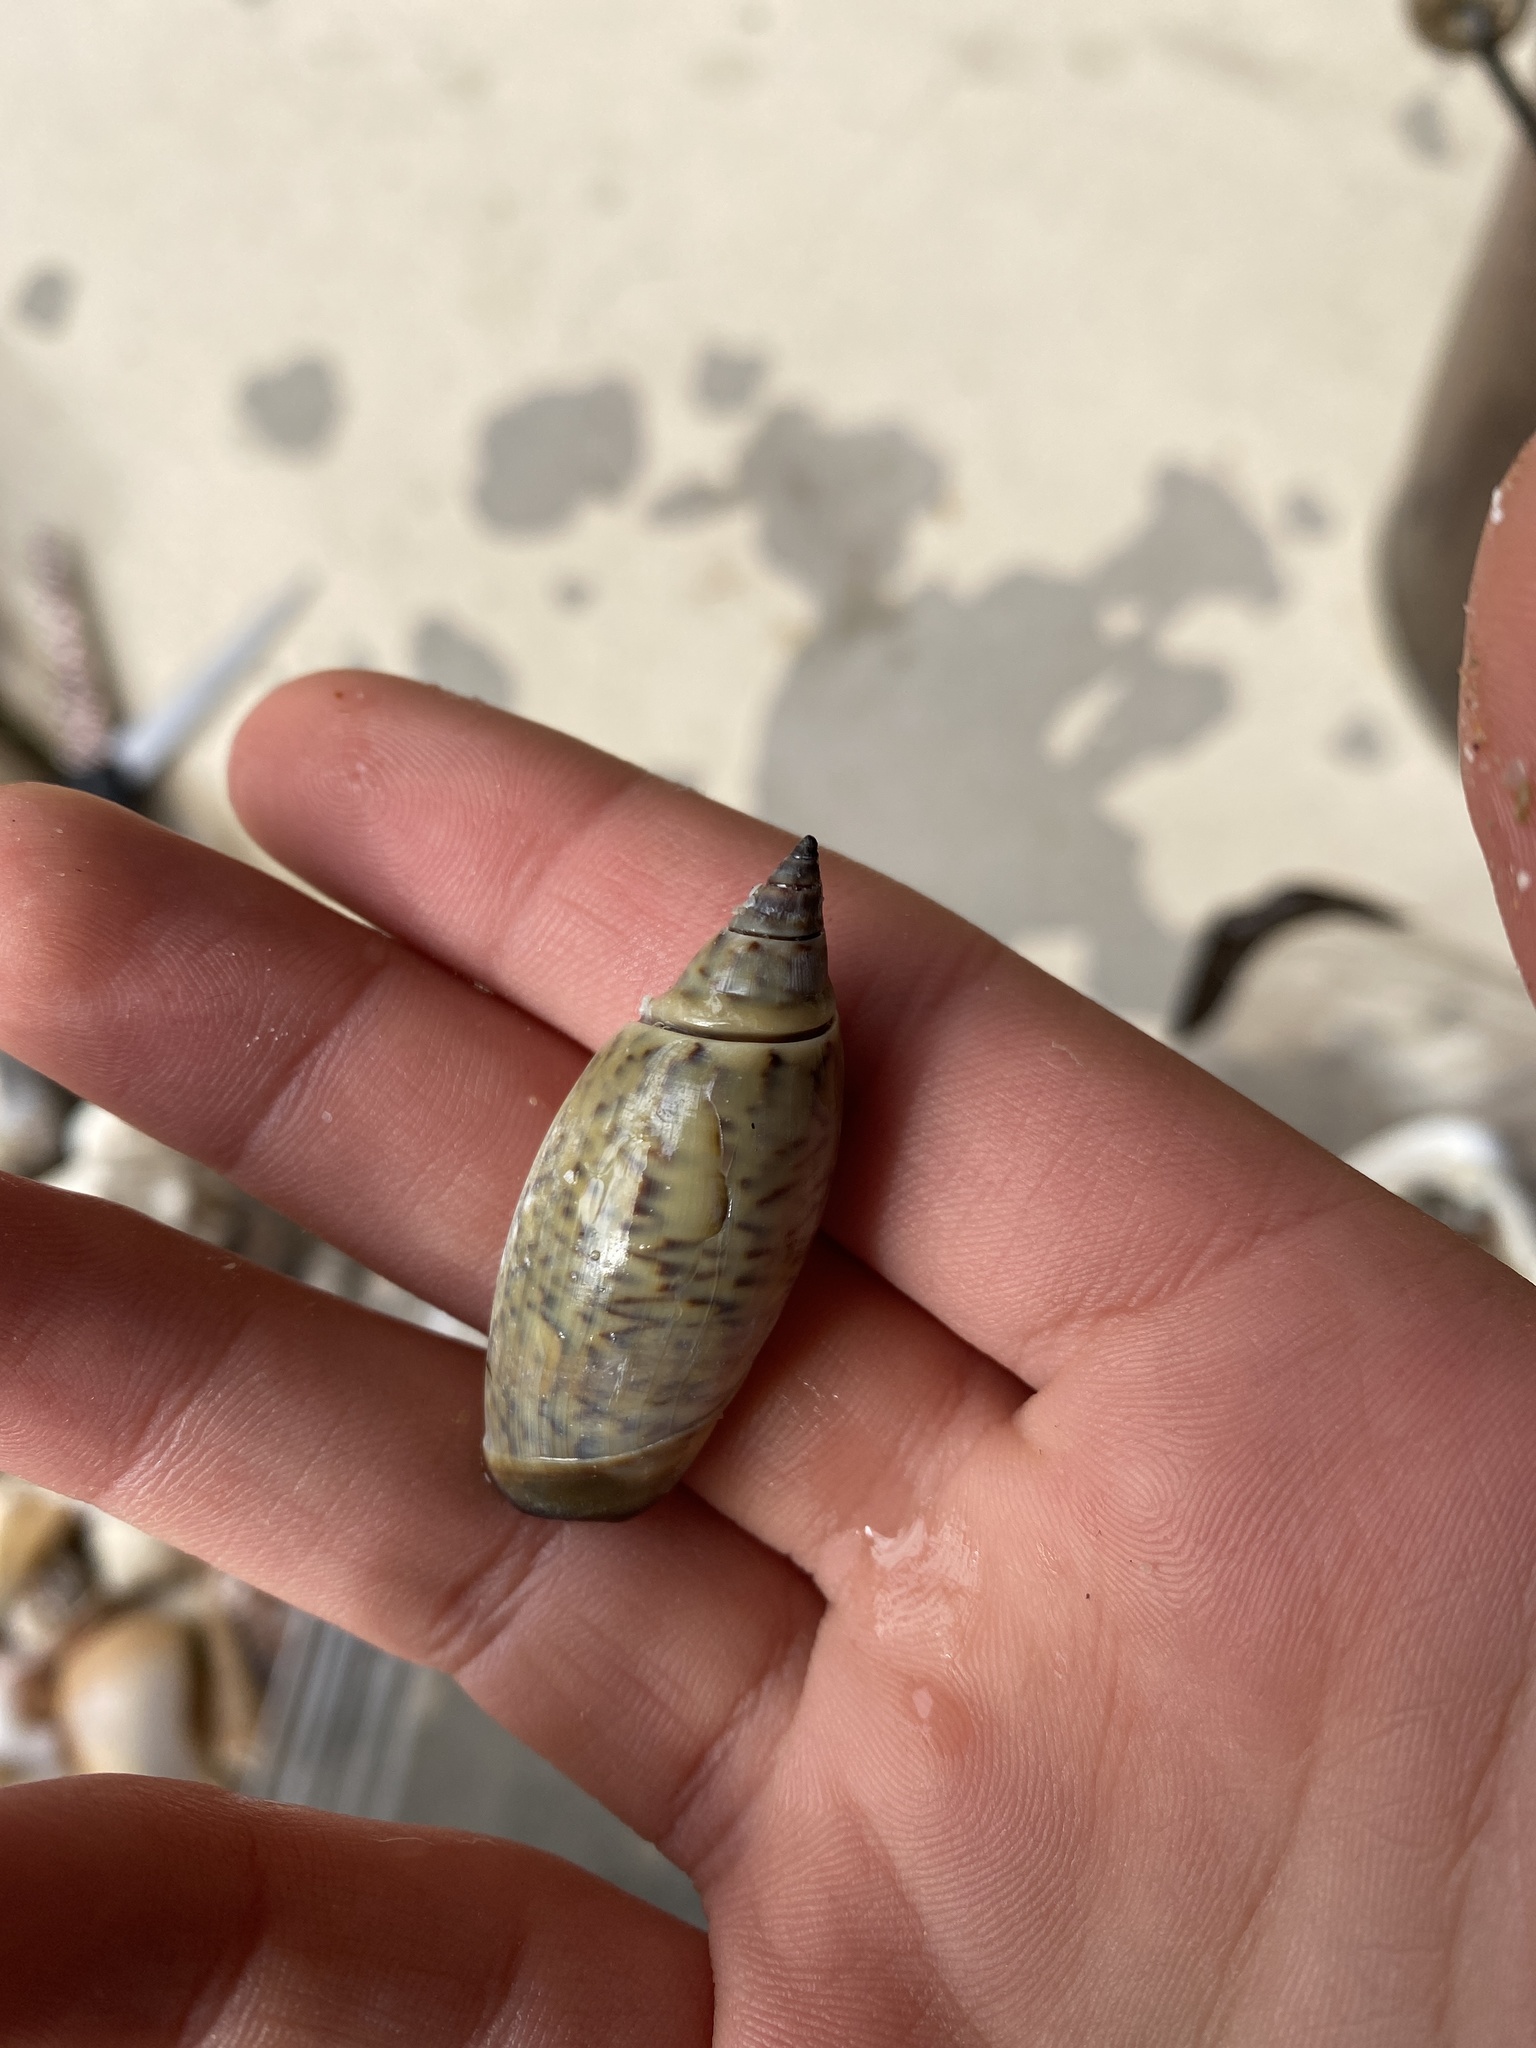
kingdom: Animalia
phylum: Mollusca
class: Gastropoda
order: Neogastropoda
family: Olividae
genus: Agaronia
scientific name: Agaronia testacea
